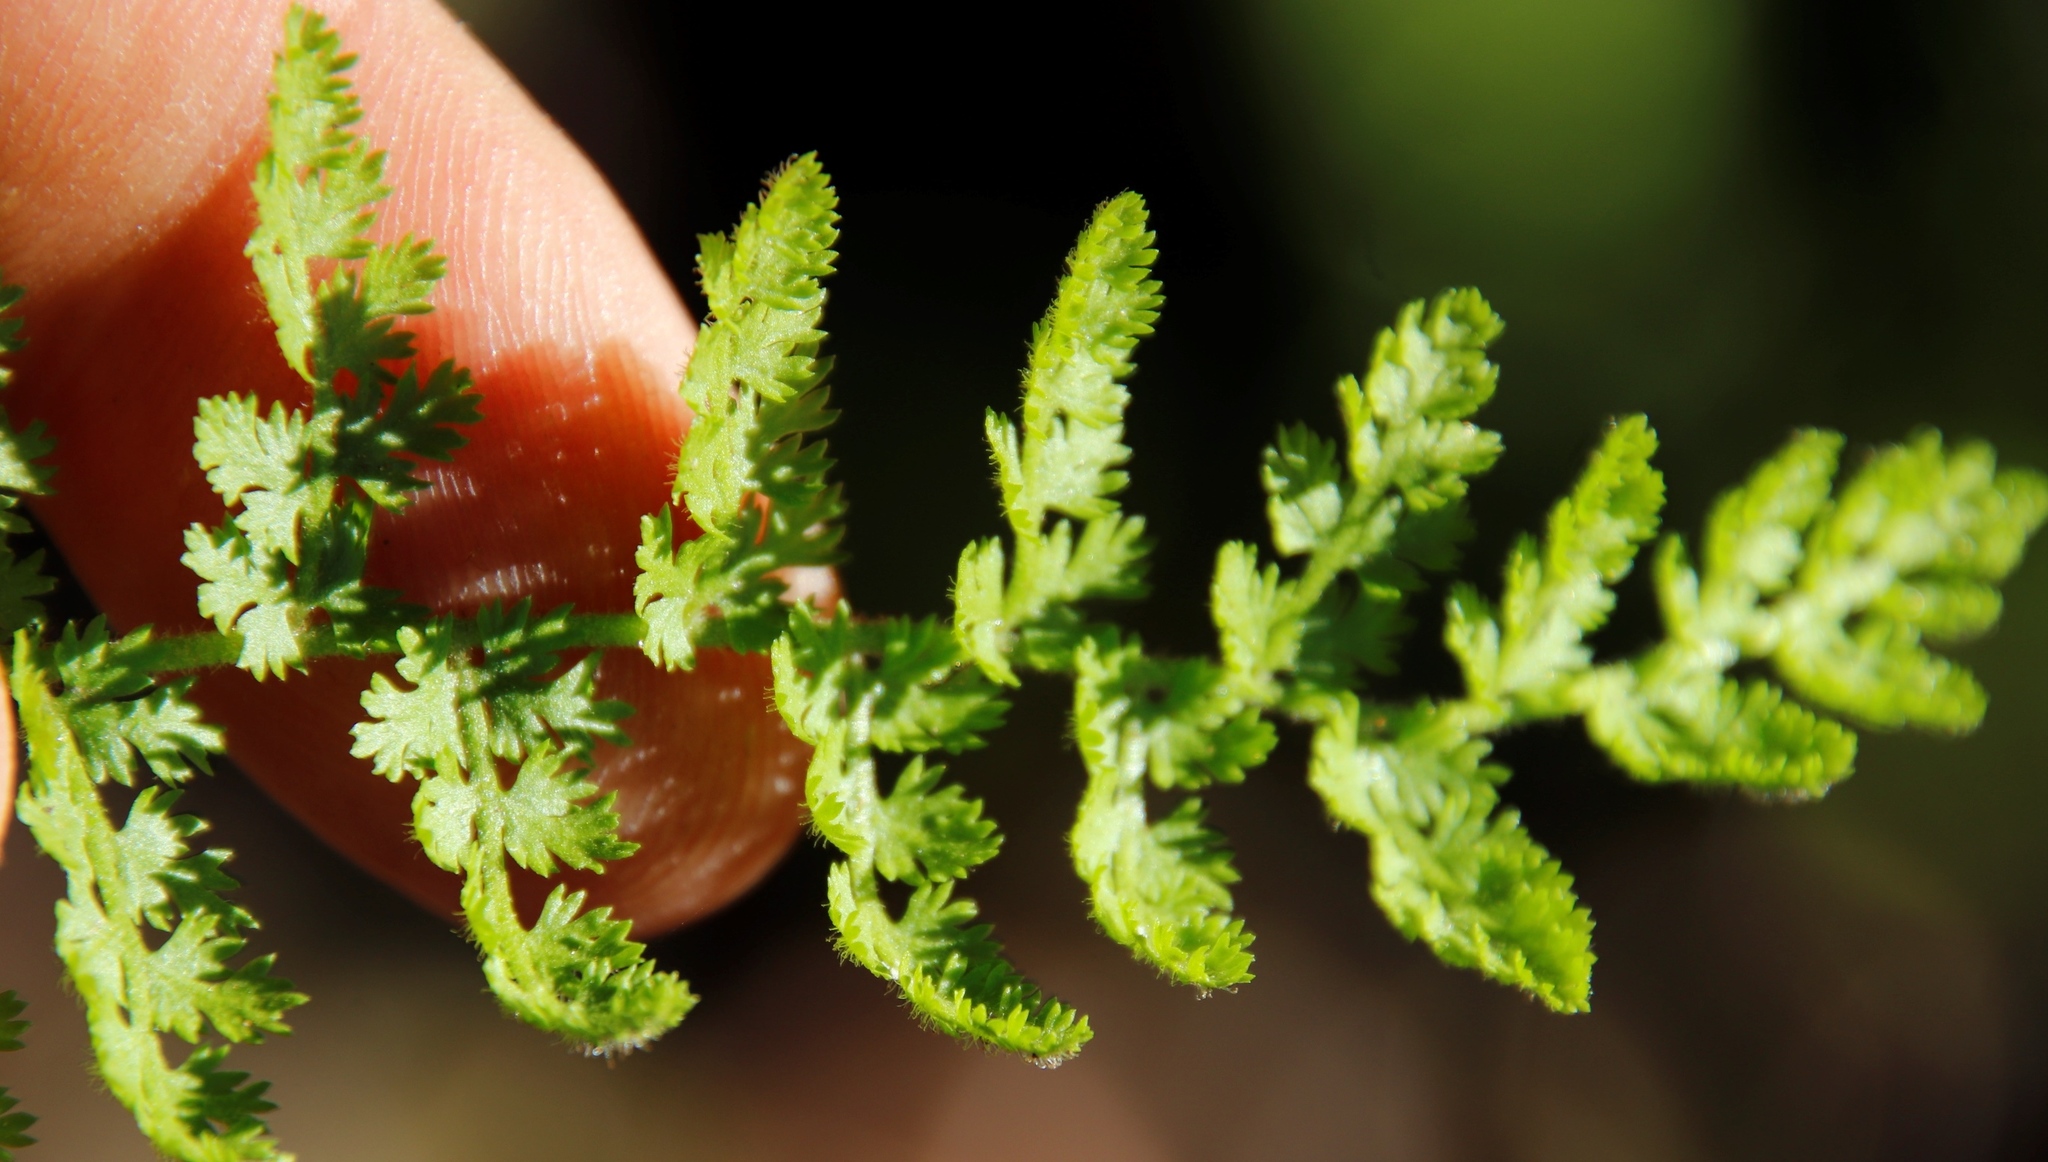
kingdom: Plantae
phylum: Tracheophyta
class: Polypodiopsida
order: Schizaeales
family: Anemiaceae
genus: Anemia
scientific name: Anemia caffrorum
